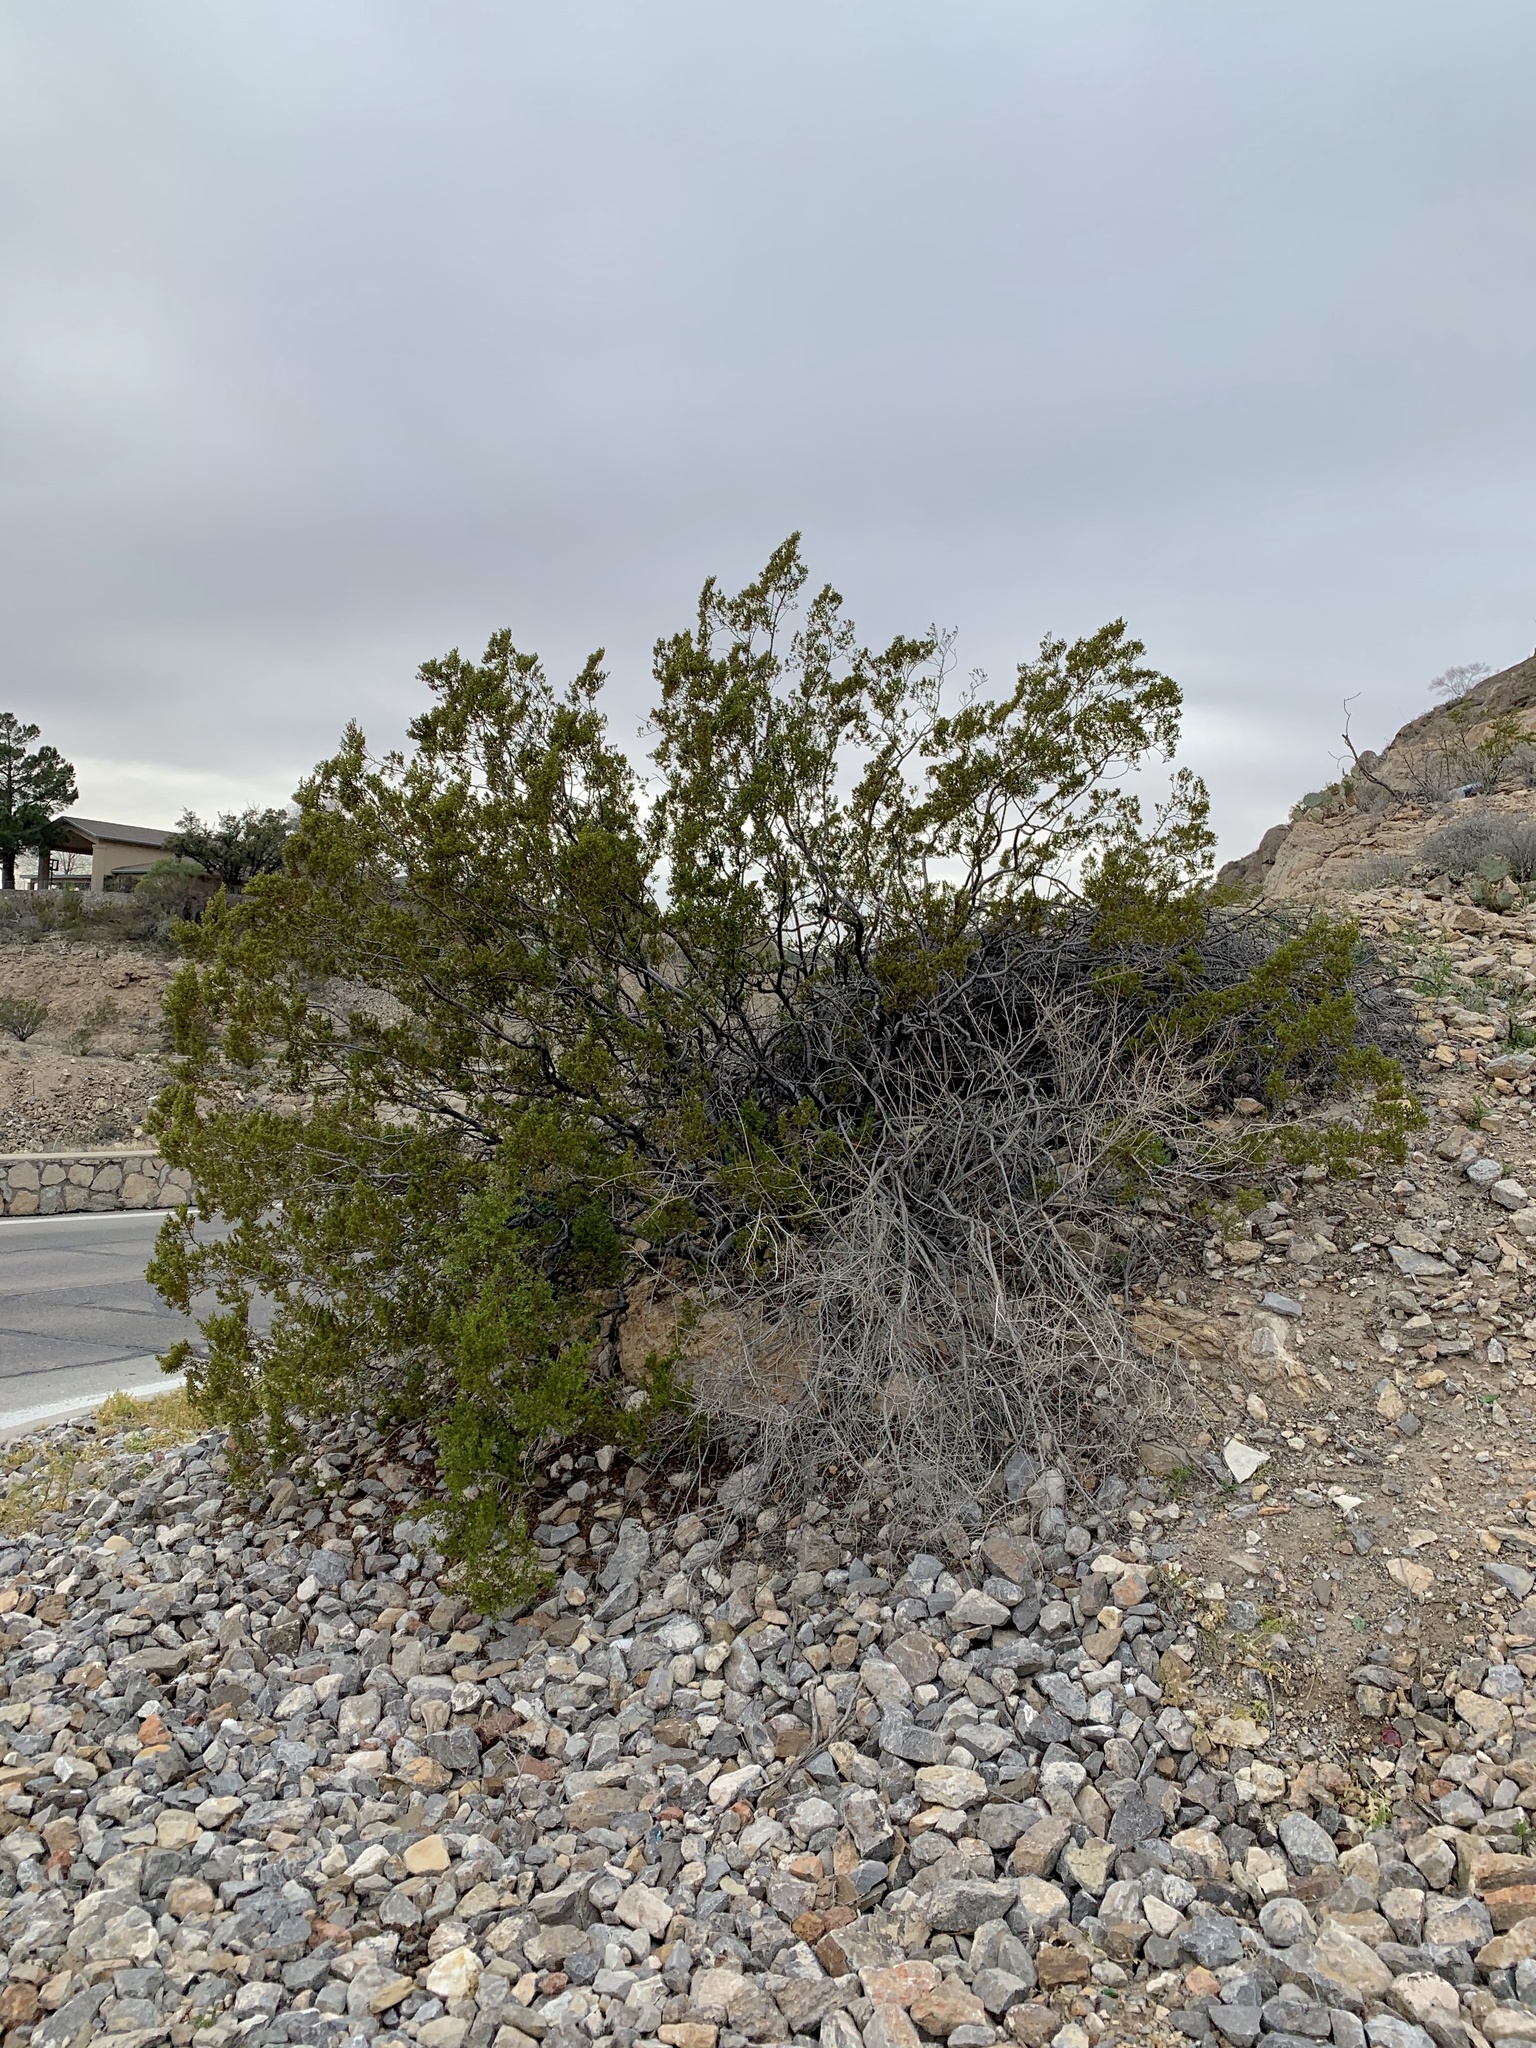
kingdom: Plantae
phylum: Tracheophyta
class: Magnoliopsida
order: Zygophyllales
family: Zygophyllaceae
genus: Larrea
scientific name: Larrea tridentata
